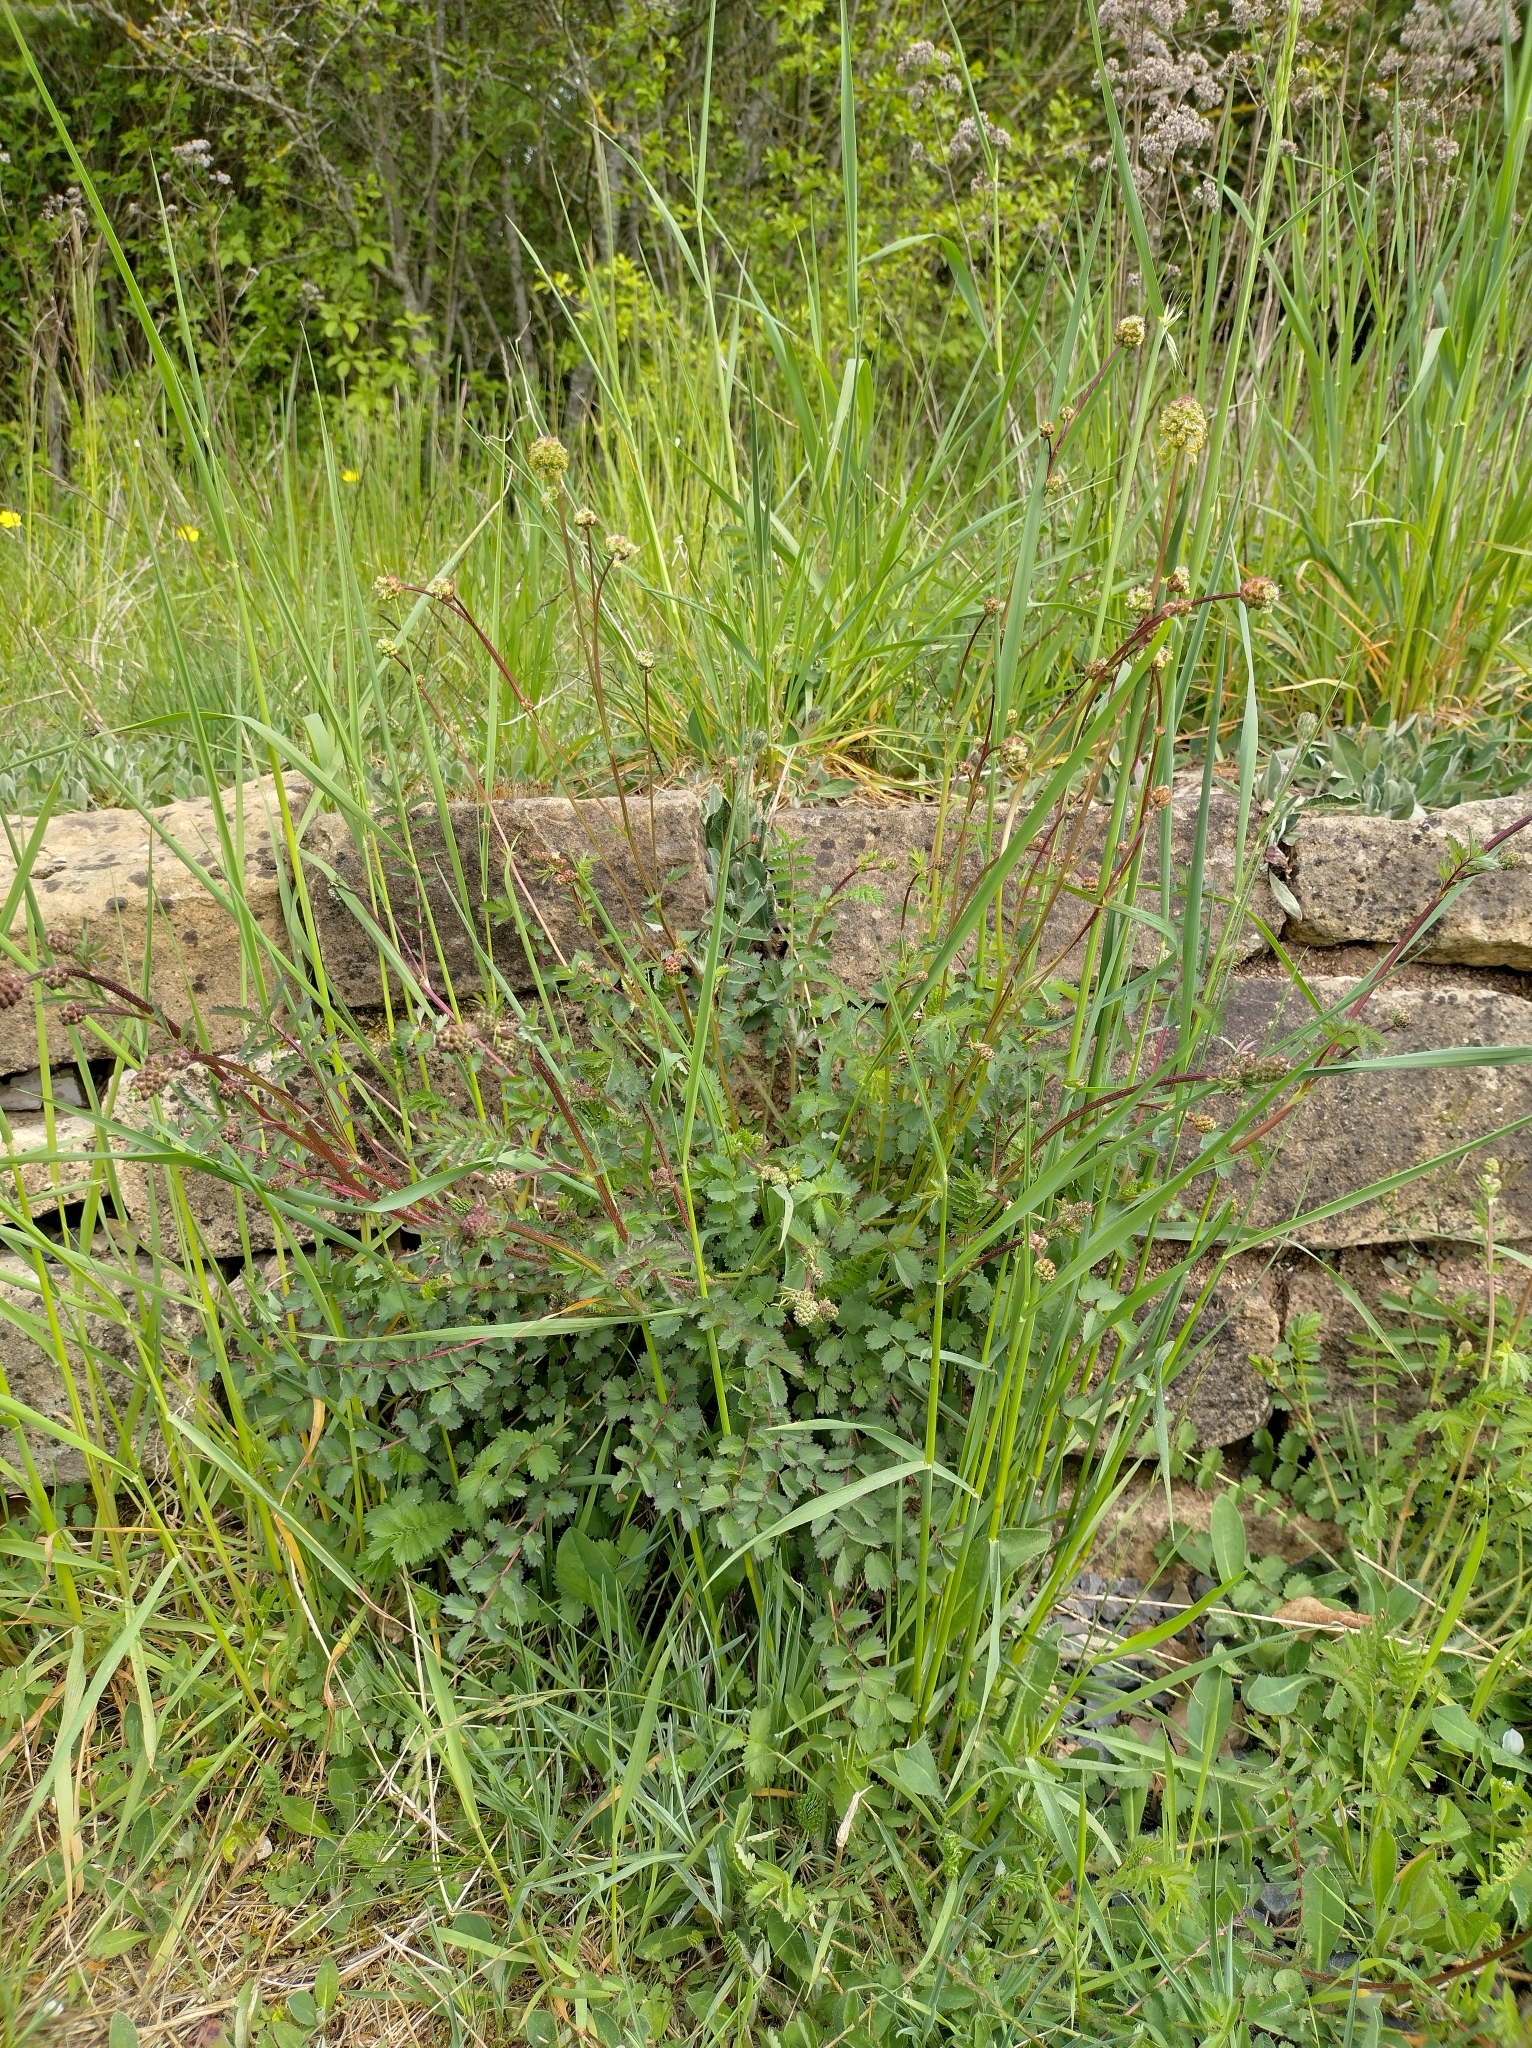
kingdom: Plantae
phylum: Tracheophyta
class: Magnoliopsida
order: Rosales
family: Rosaceae
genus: Poterium
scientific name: Poterium sanguisorba
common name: Salad burnet
